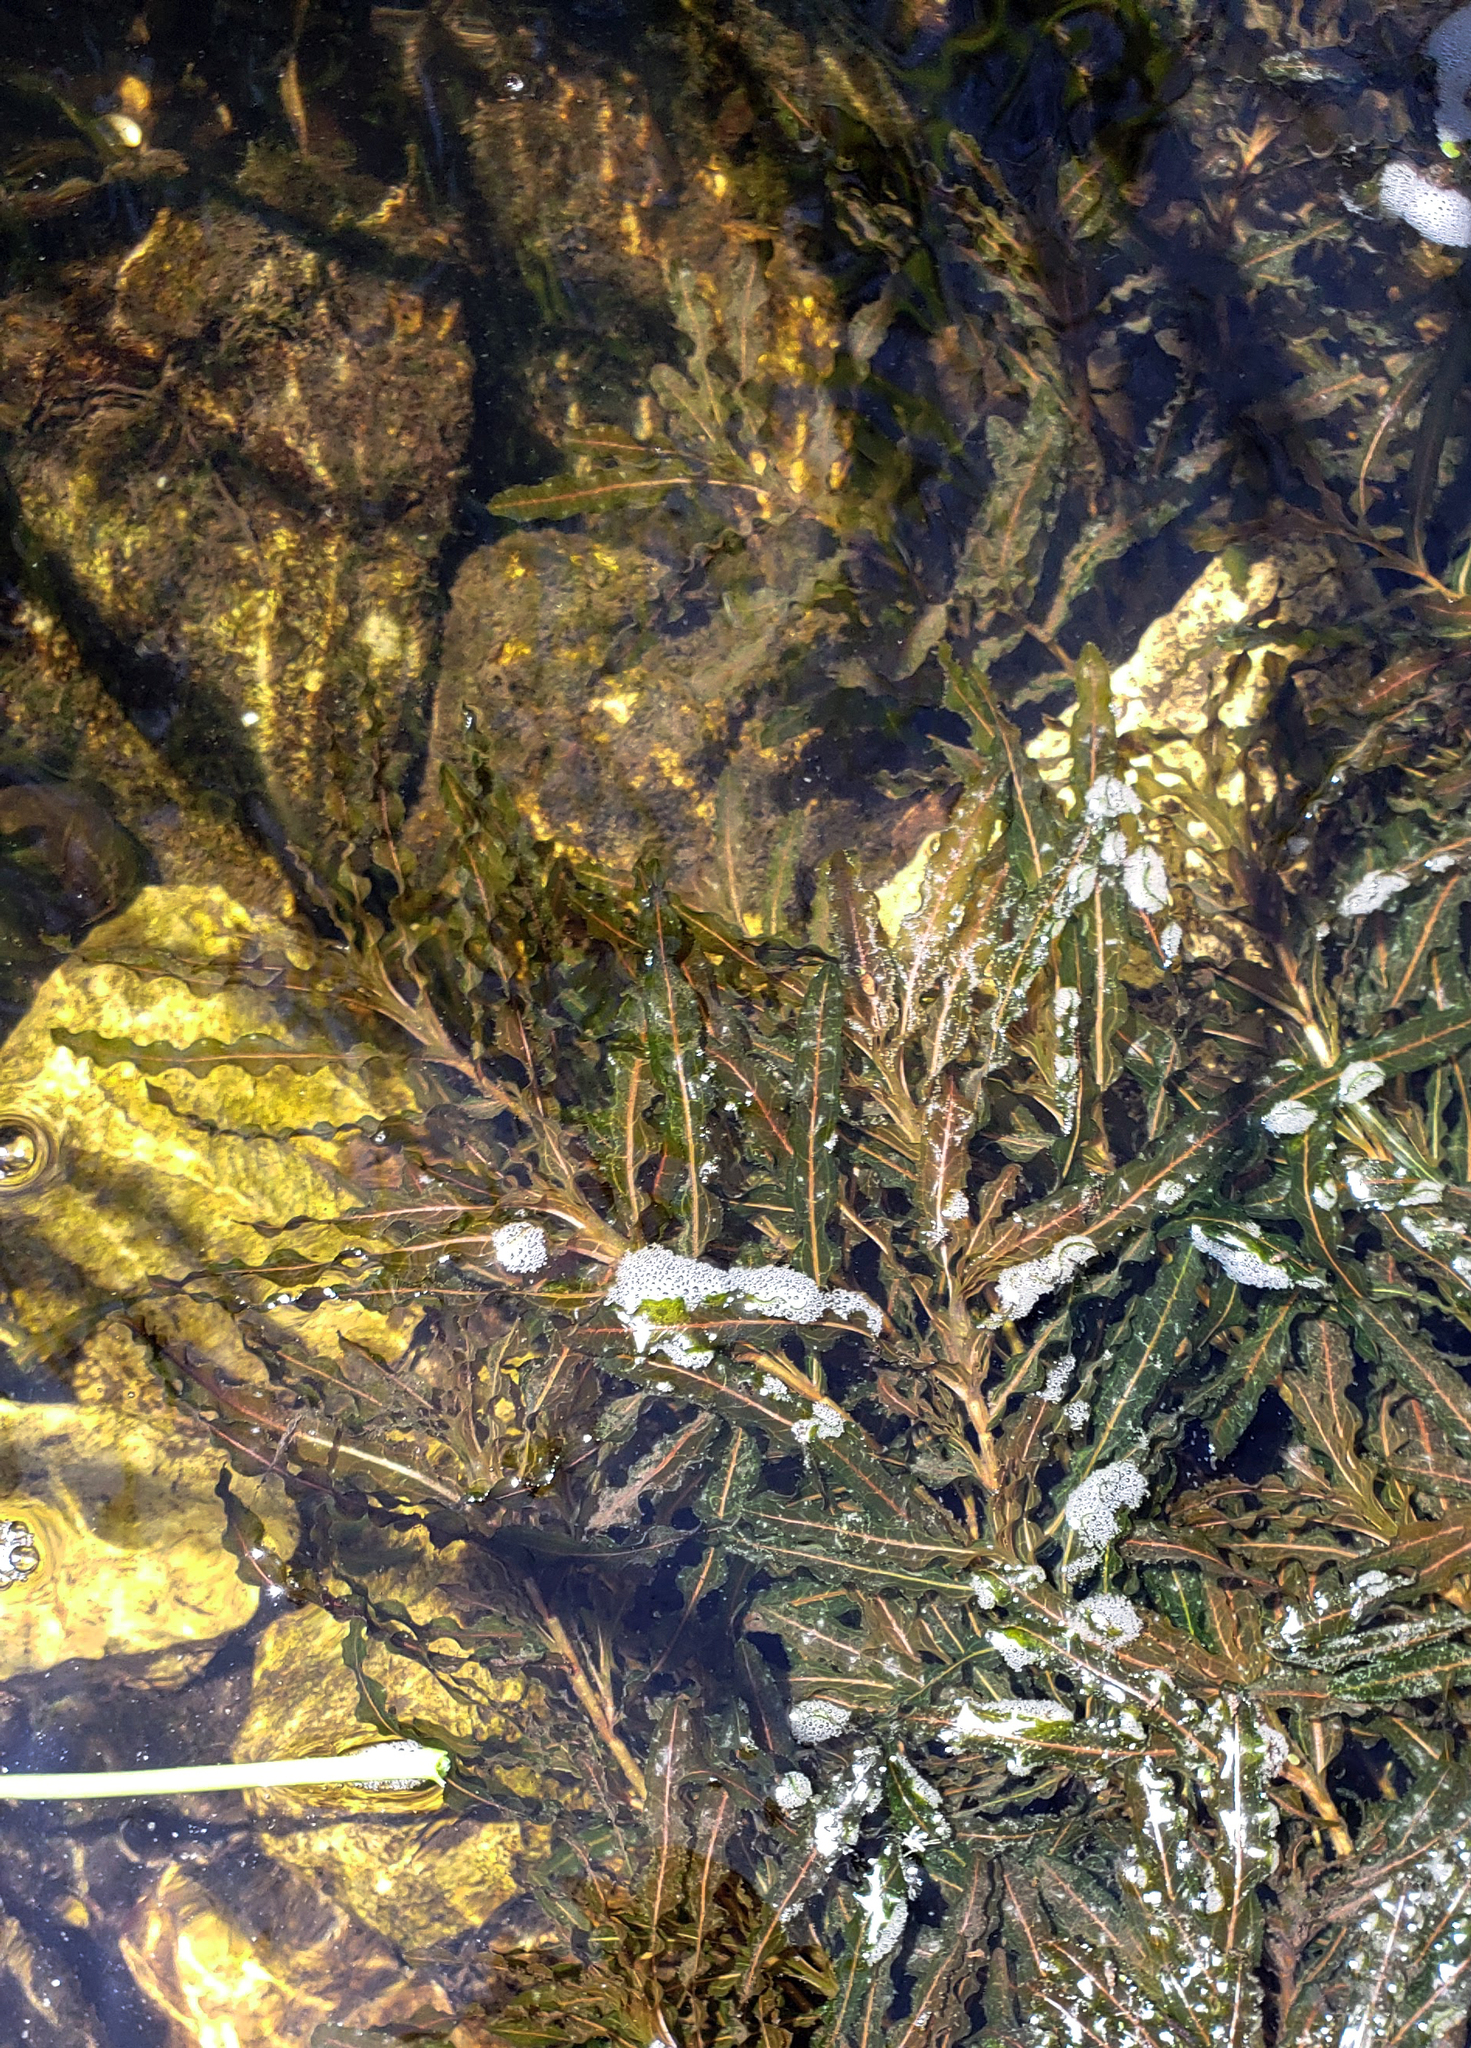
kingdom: Plantae
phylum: Tracheophyta
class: Liliopsida
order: Alismatales
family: Potamogetonaceae
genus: Potamogeton
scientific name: Potamogeton crispus
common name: Curled pondweed
